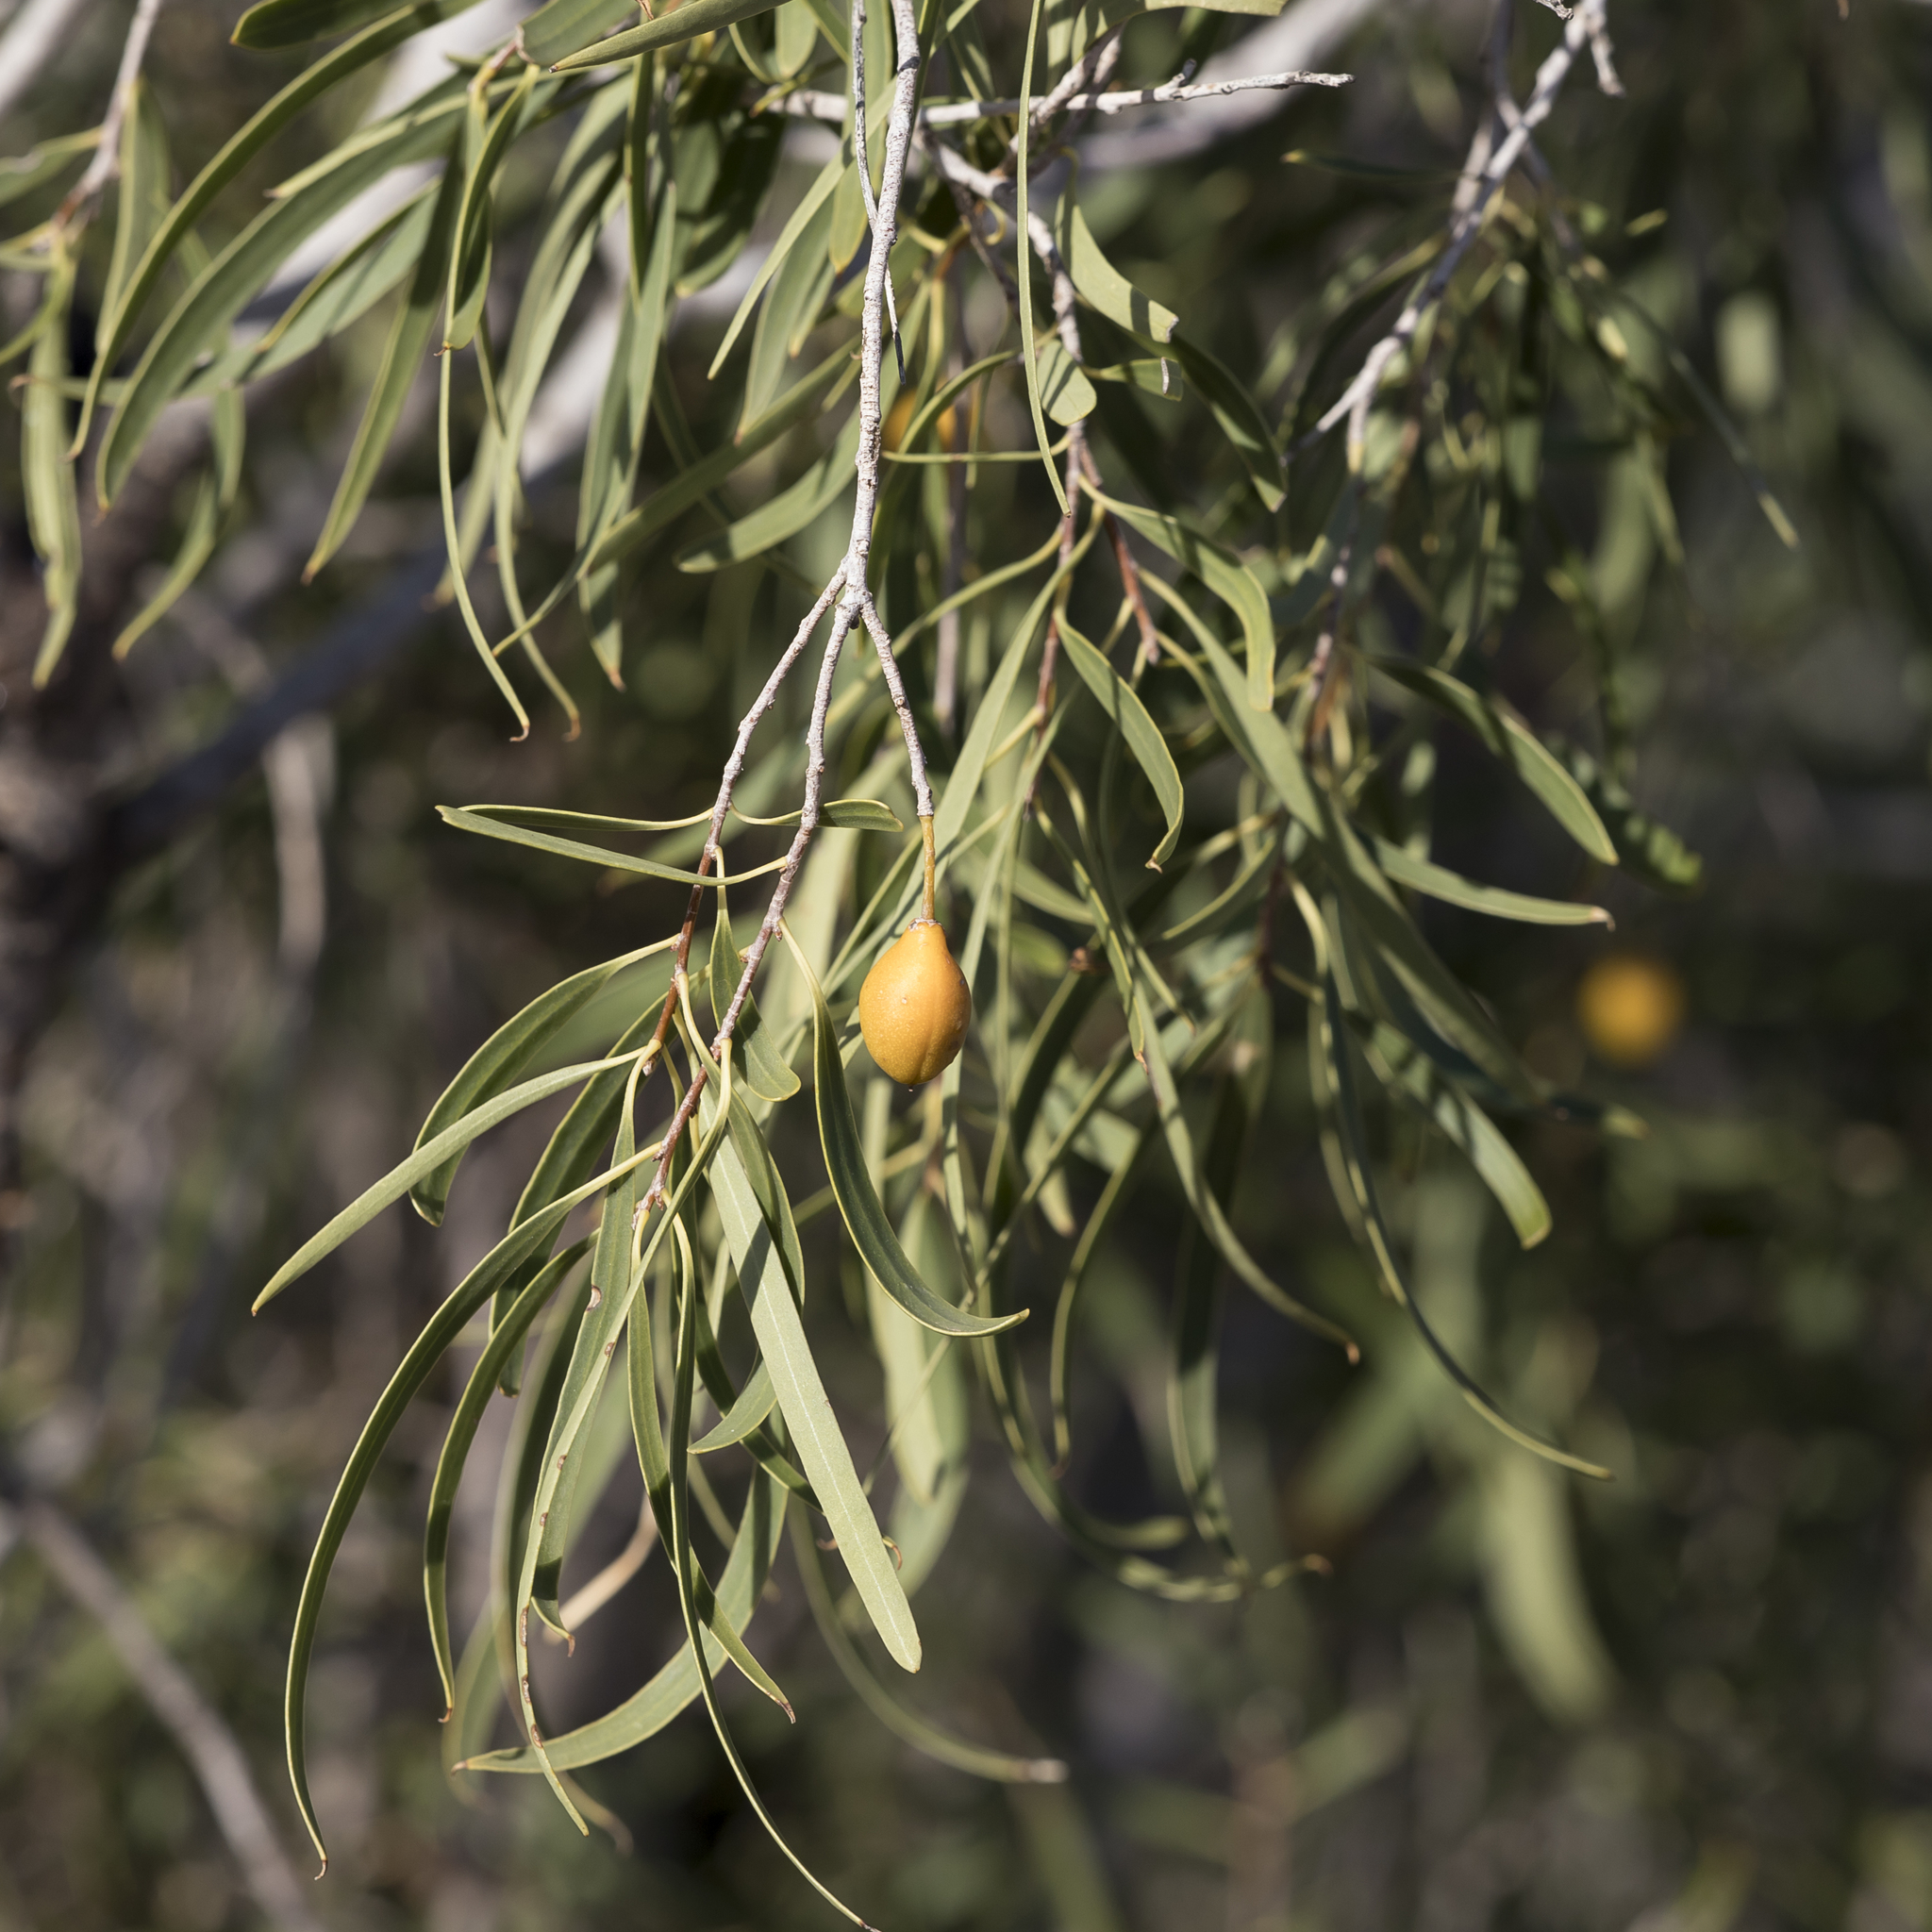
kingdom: Plantae
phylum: Tracheophyta
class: Magnoliopsida
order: Apiales
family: Pittosporaceae
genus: Pittosporum
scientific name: Pittosporum angustifolium
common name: Weeping pittosporum
